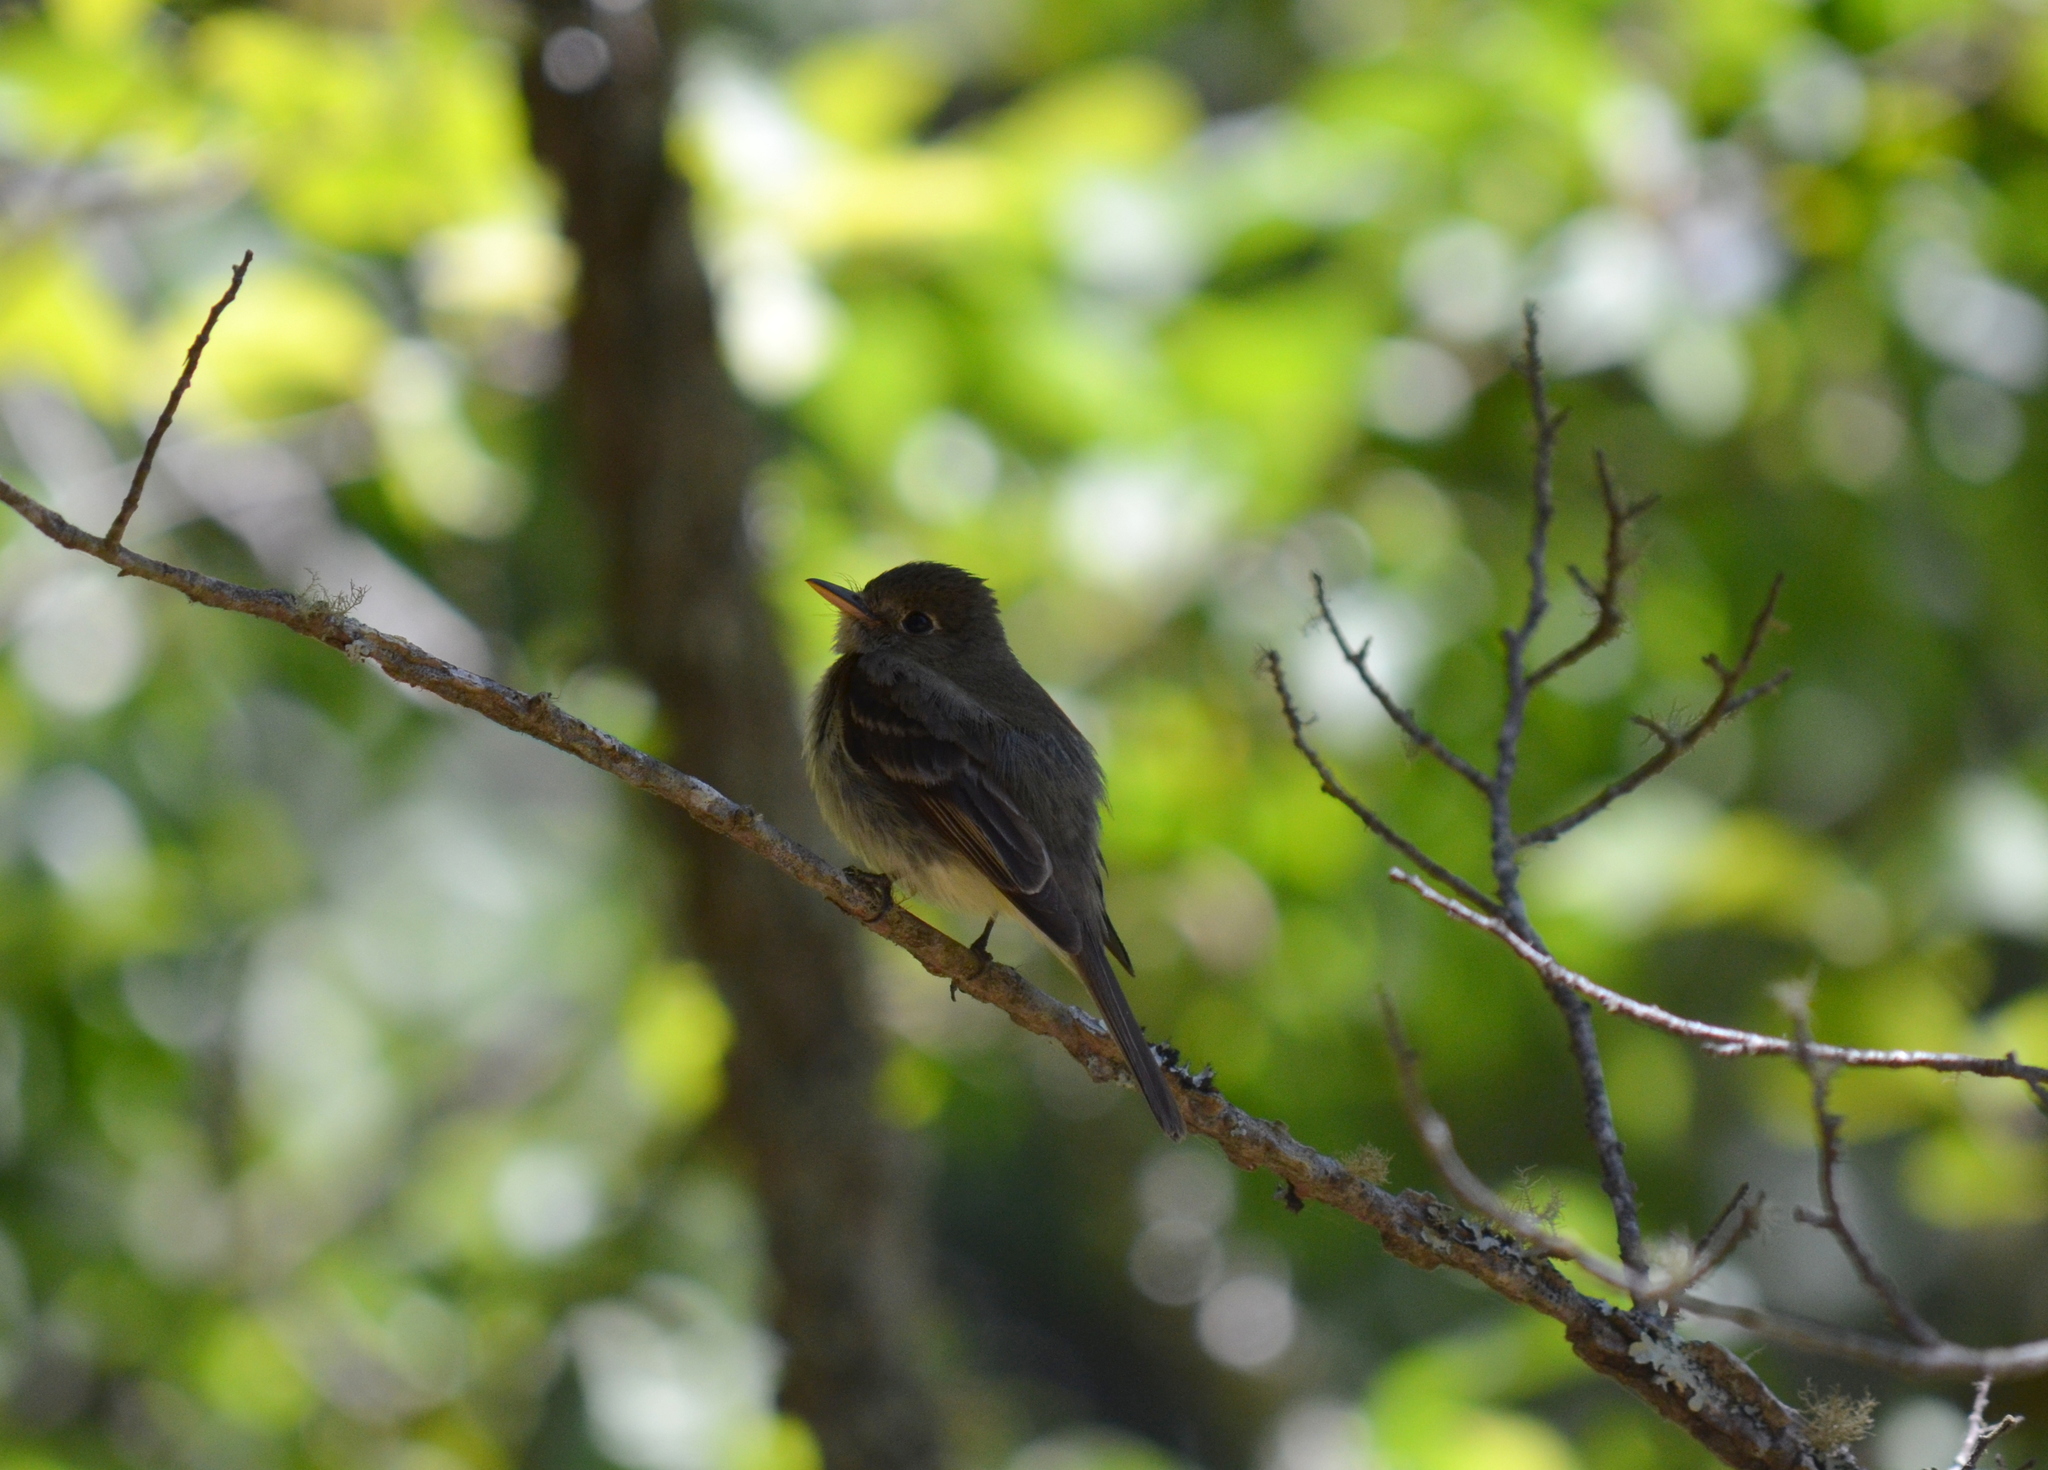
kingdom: Animalia
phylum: Chordata
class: Aves
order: Passeriformes
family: Tyrannidae
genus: Empidonax
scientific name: Empidonax difficilis
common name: Pacific-slope flycatcher
